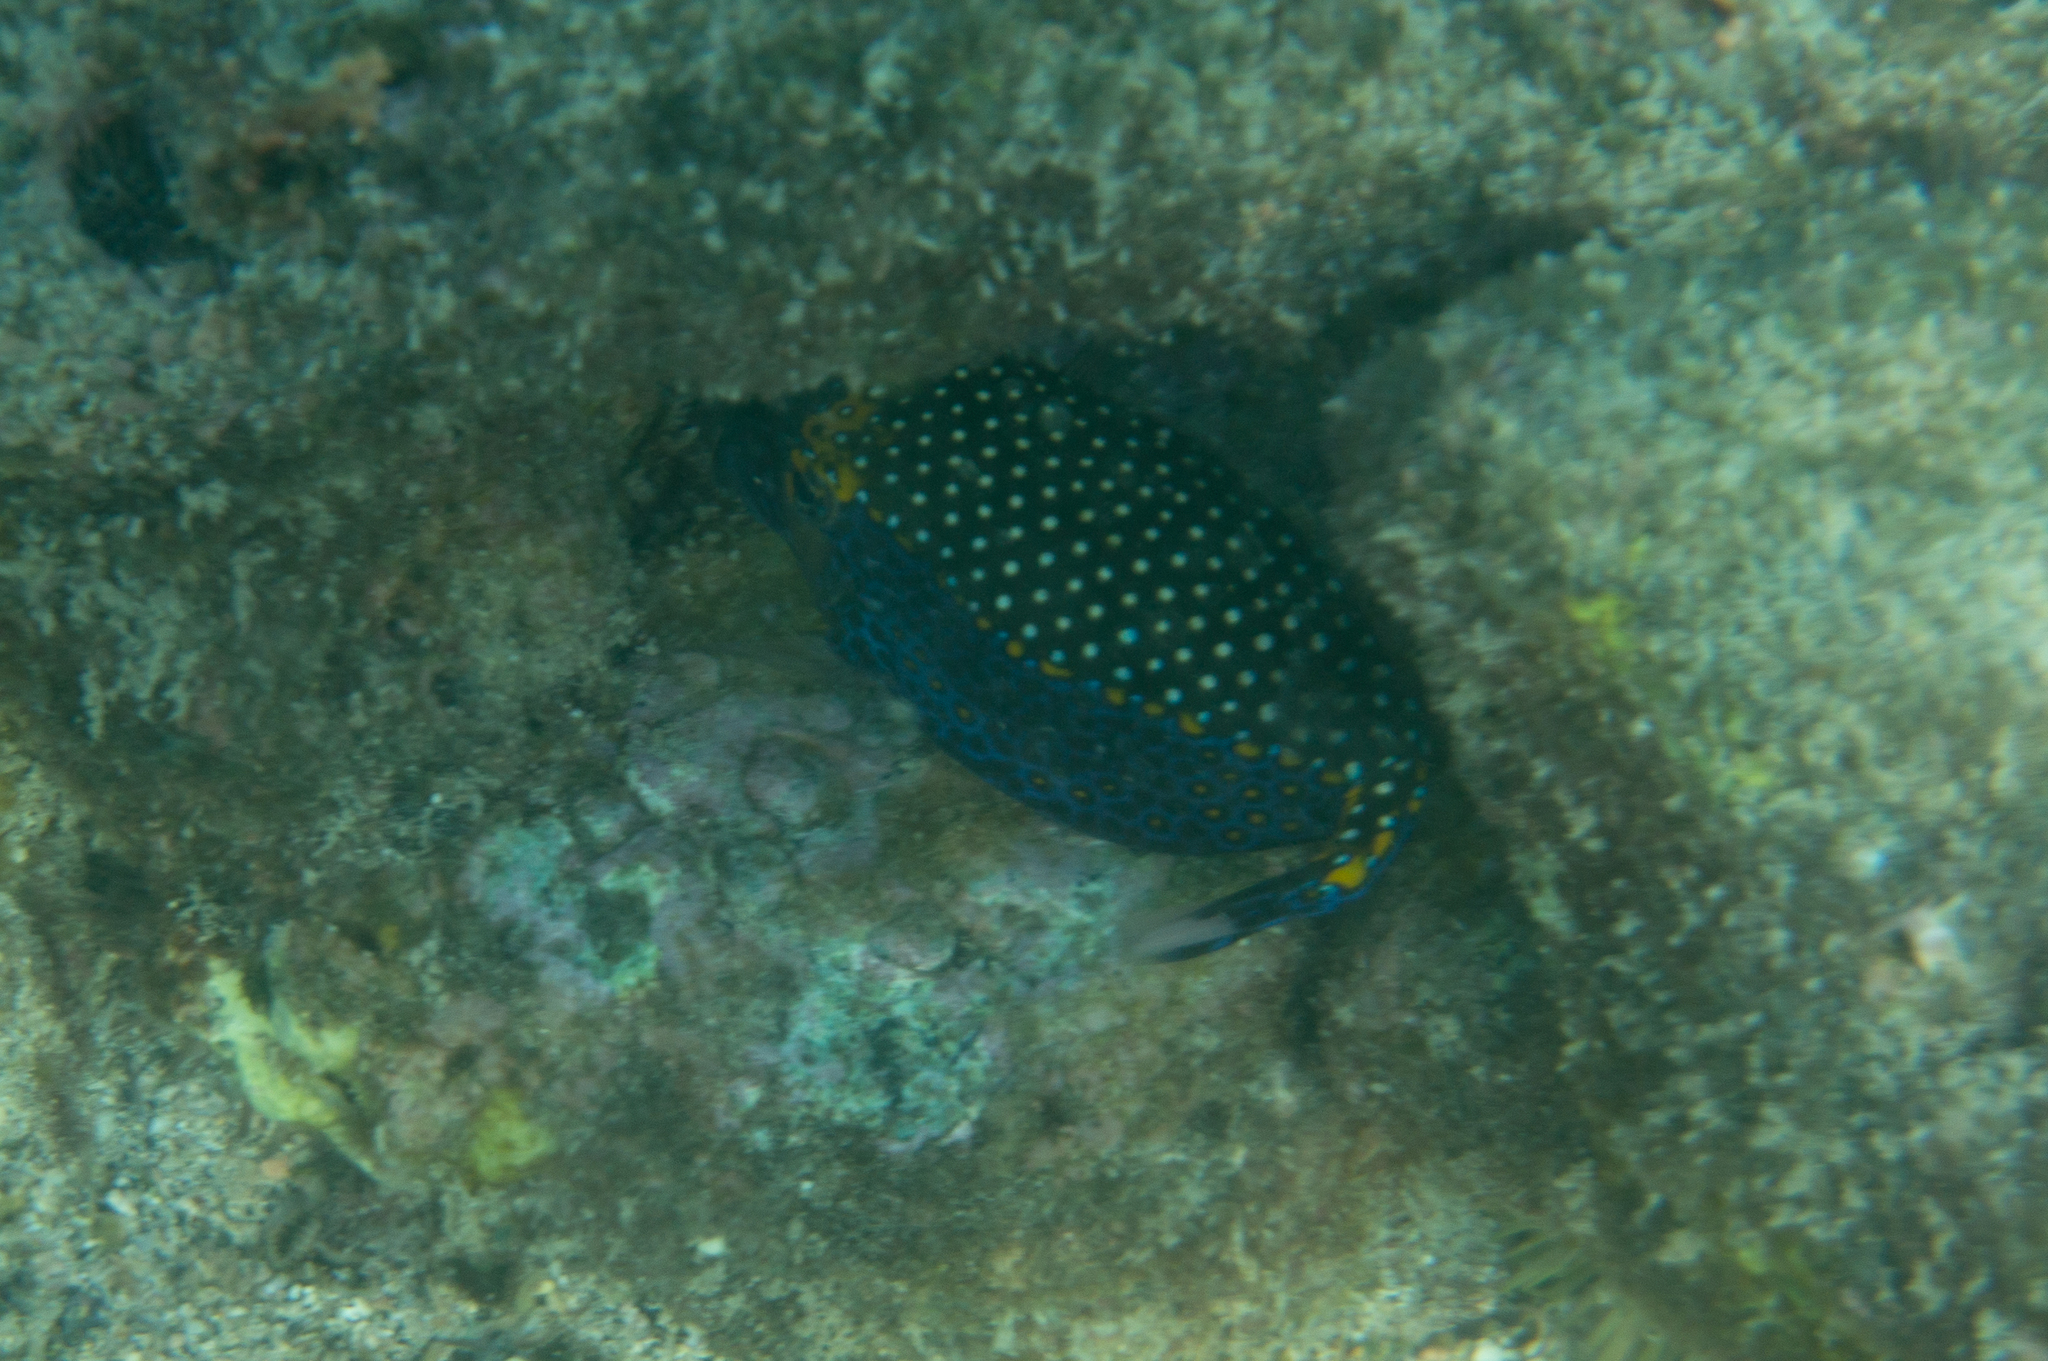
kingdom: Animalia
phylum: Chordata
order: Tetraodontiformes
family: Ostraciidae
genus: Ostracion
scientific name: Ostracion meleagris
